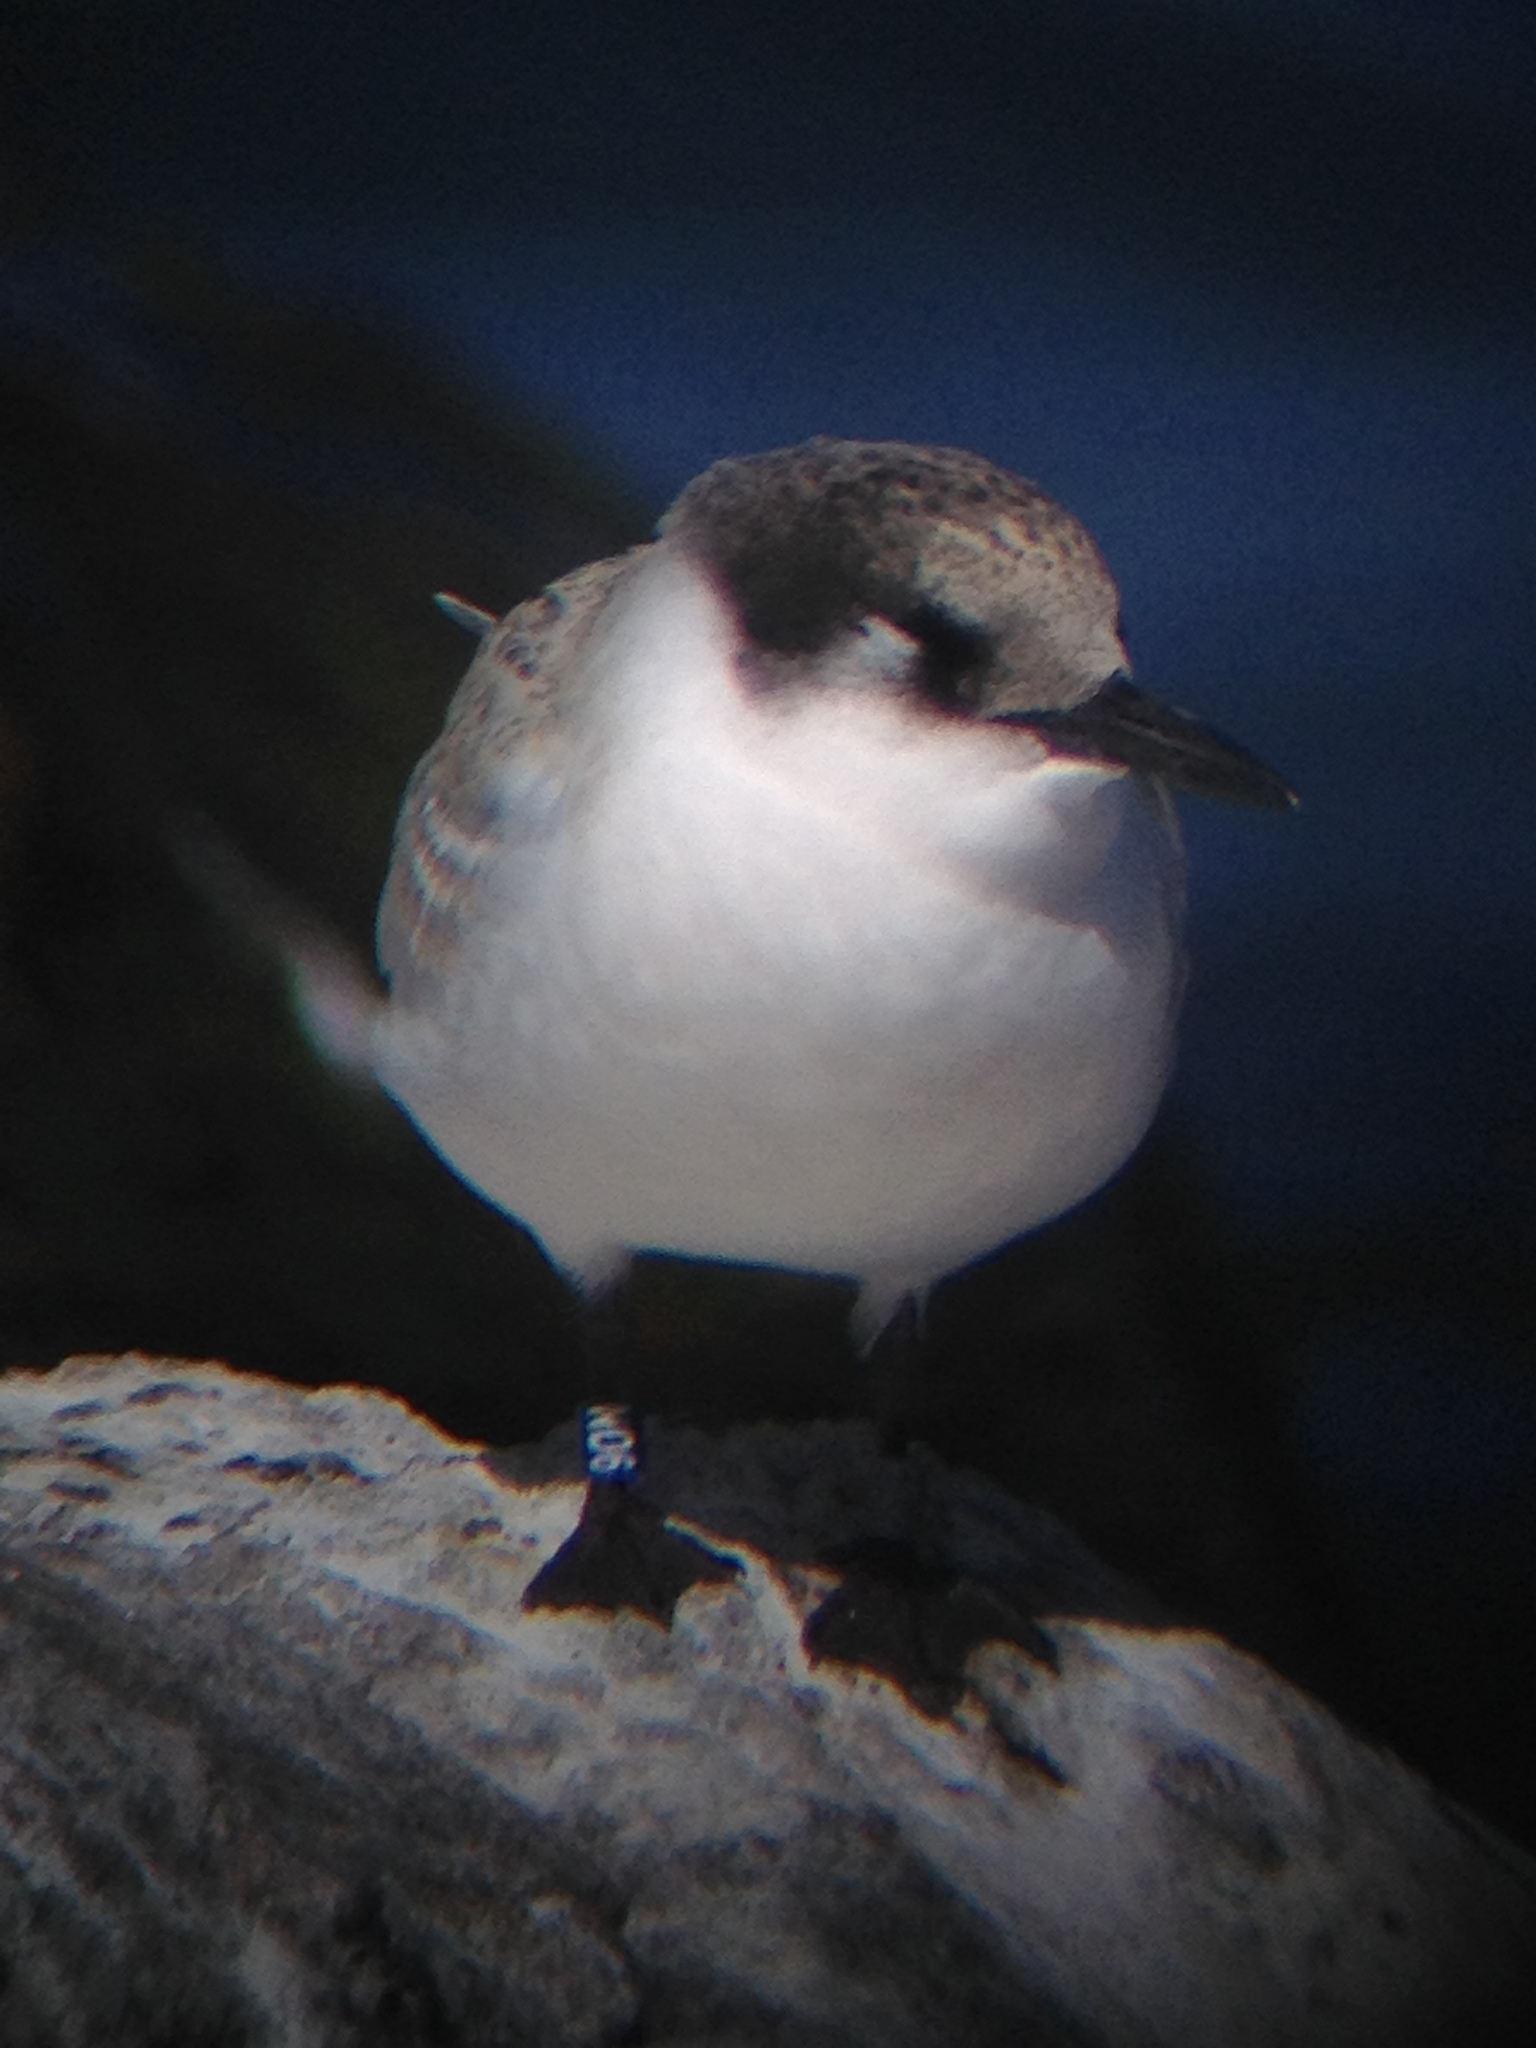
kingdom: Animalia
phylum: Chordata
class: Aves
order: Charadriiformes
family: Laridae
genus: Sterna
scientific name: Sterna dougallii
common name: Roseate tern
